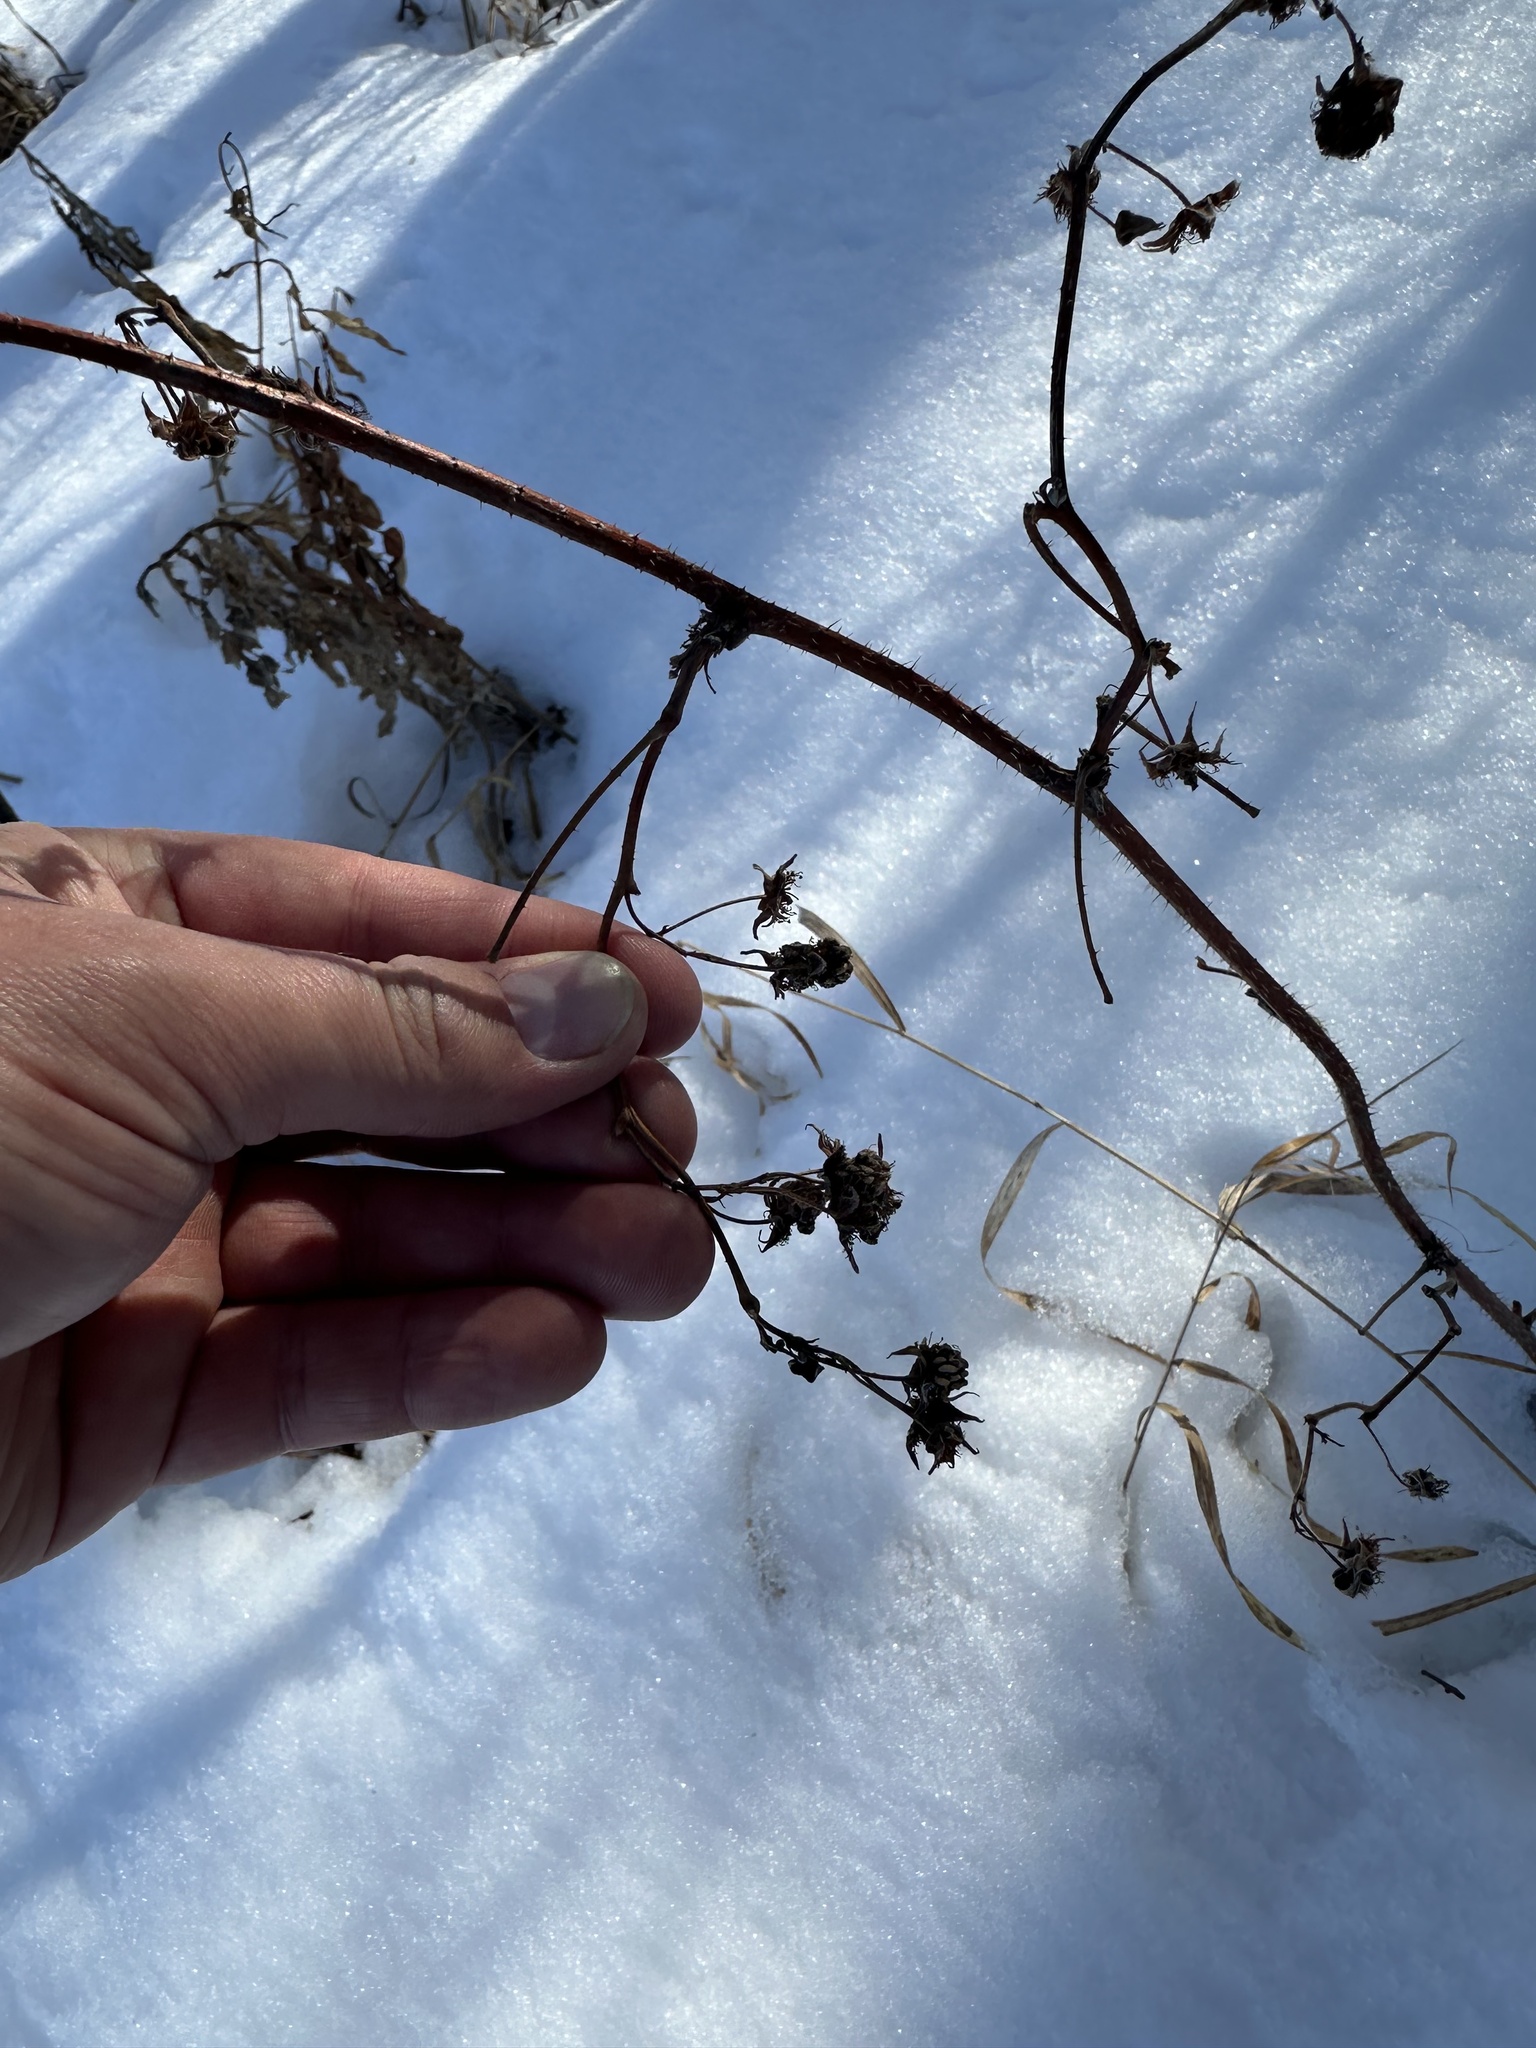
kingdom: Plantae
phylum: Tracheophyta
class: Magnoliopsida
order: Rosales
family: Rosaceae
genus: Rubus
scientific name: Rubus idaeus
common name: Raspberry
